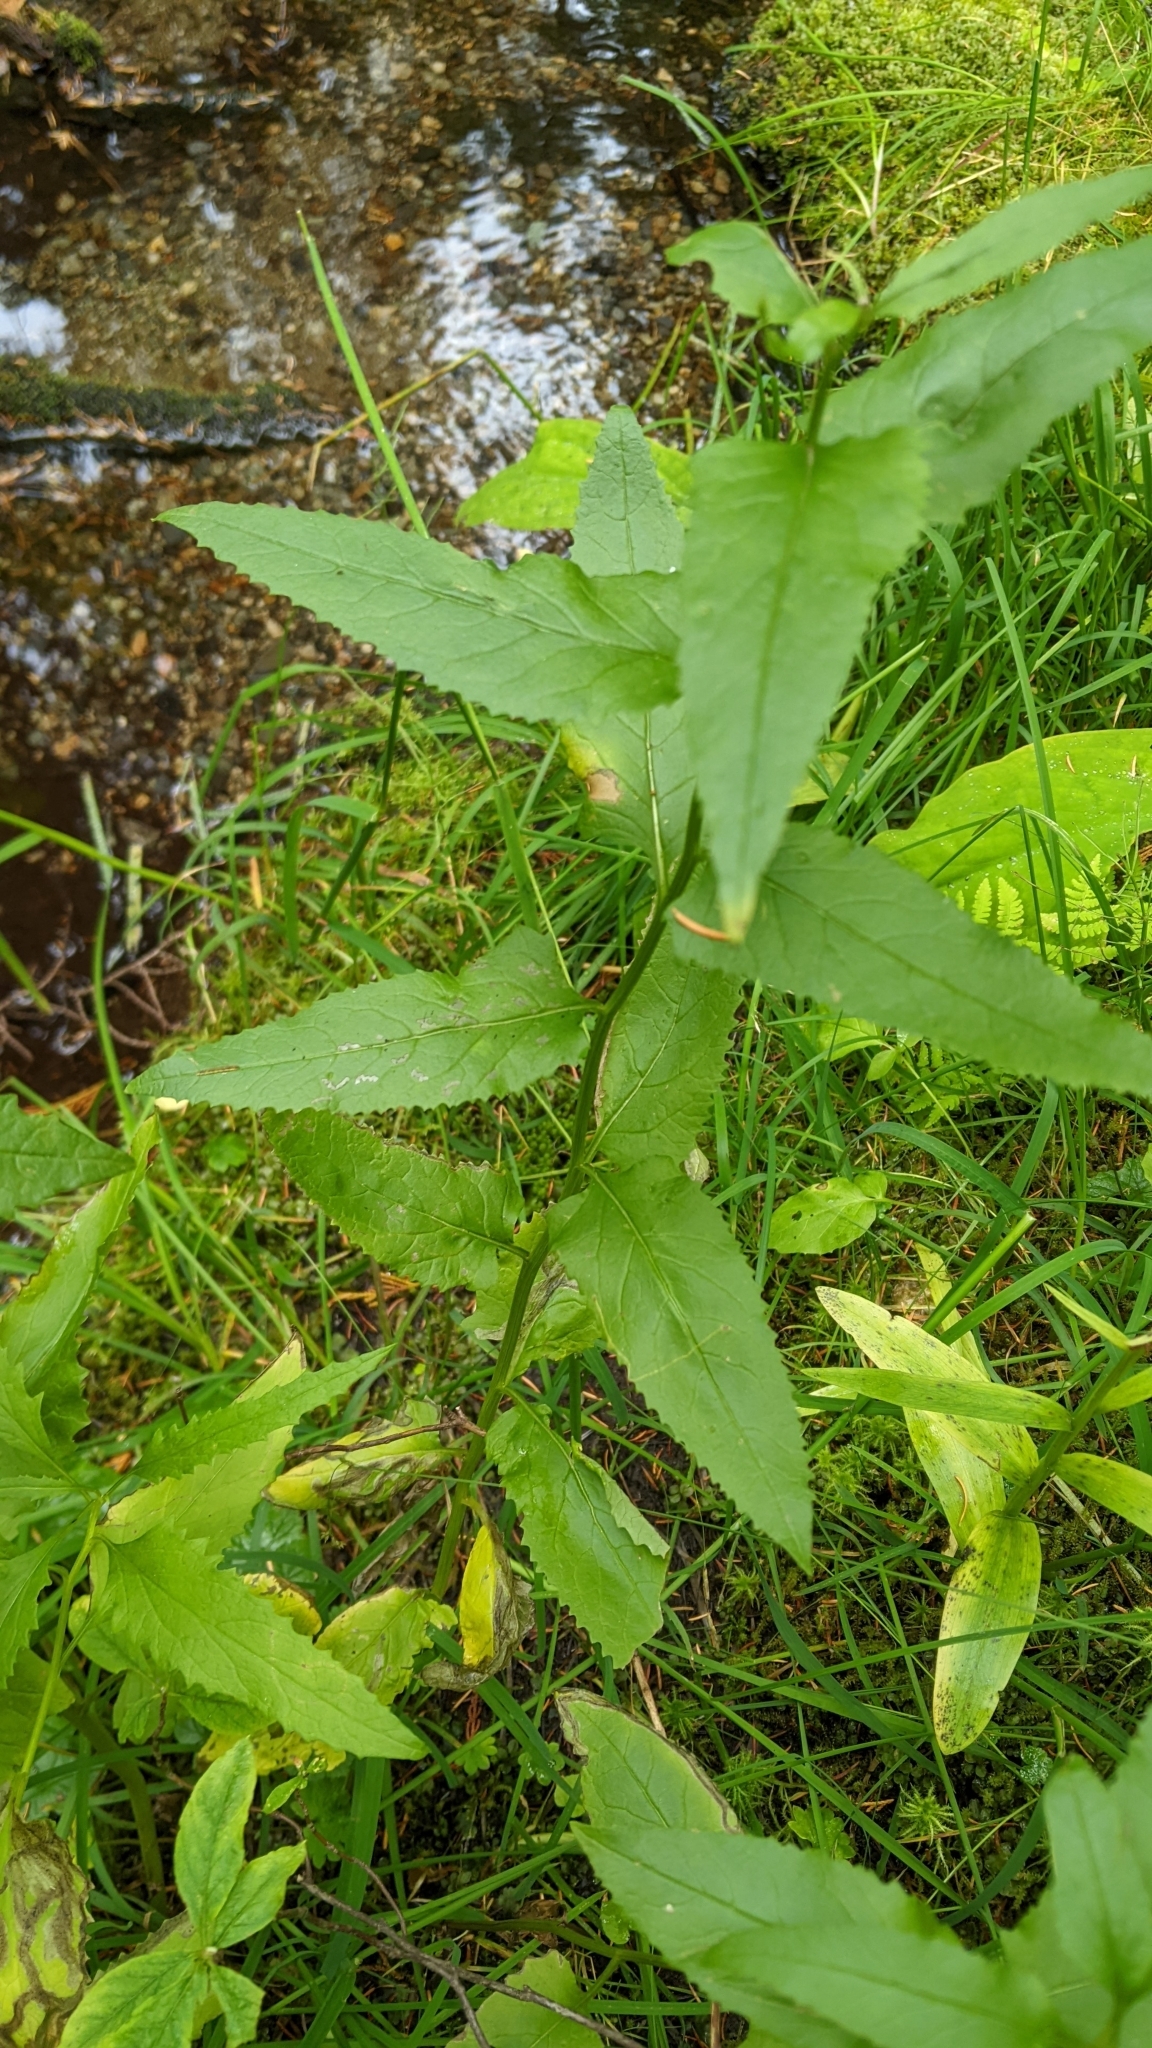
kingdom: Plantae
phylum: Tracheophyta
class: Magnoliopsida
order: Asterales
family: Asteraceae
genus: Senecio
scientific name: Senecio triangularis
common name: Arrowleaf butterweed
